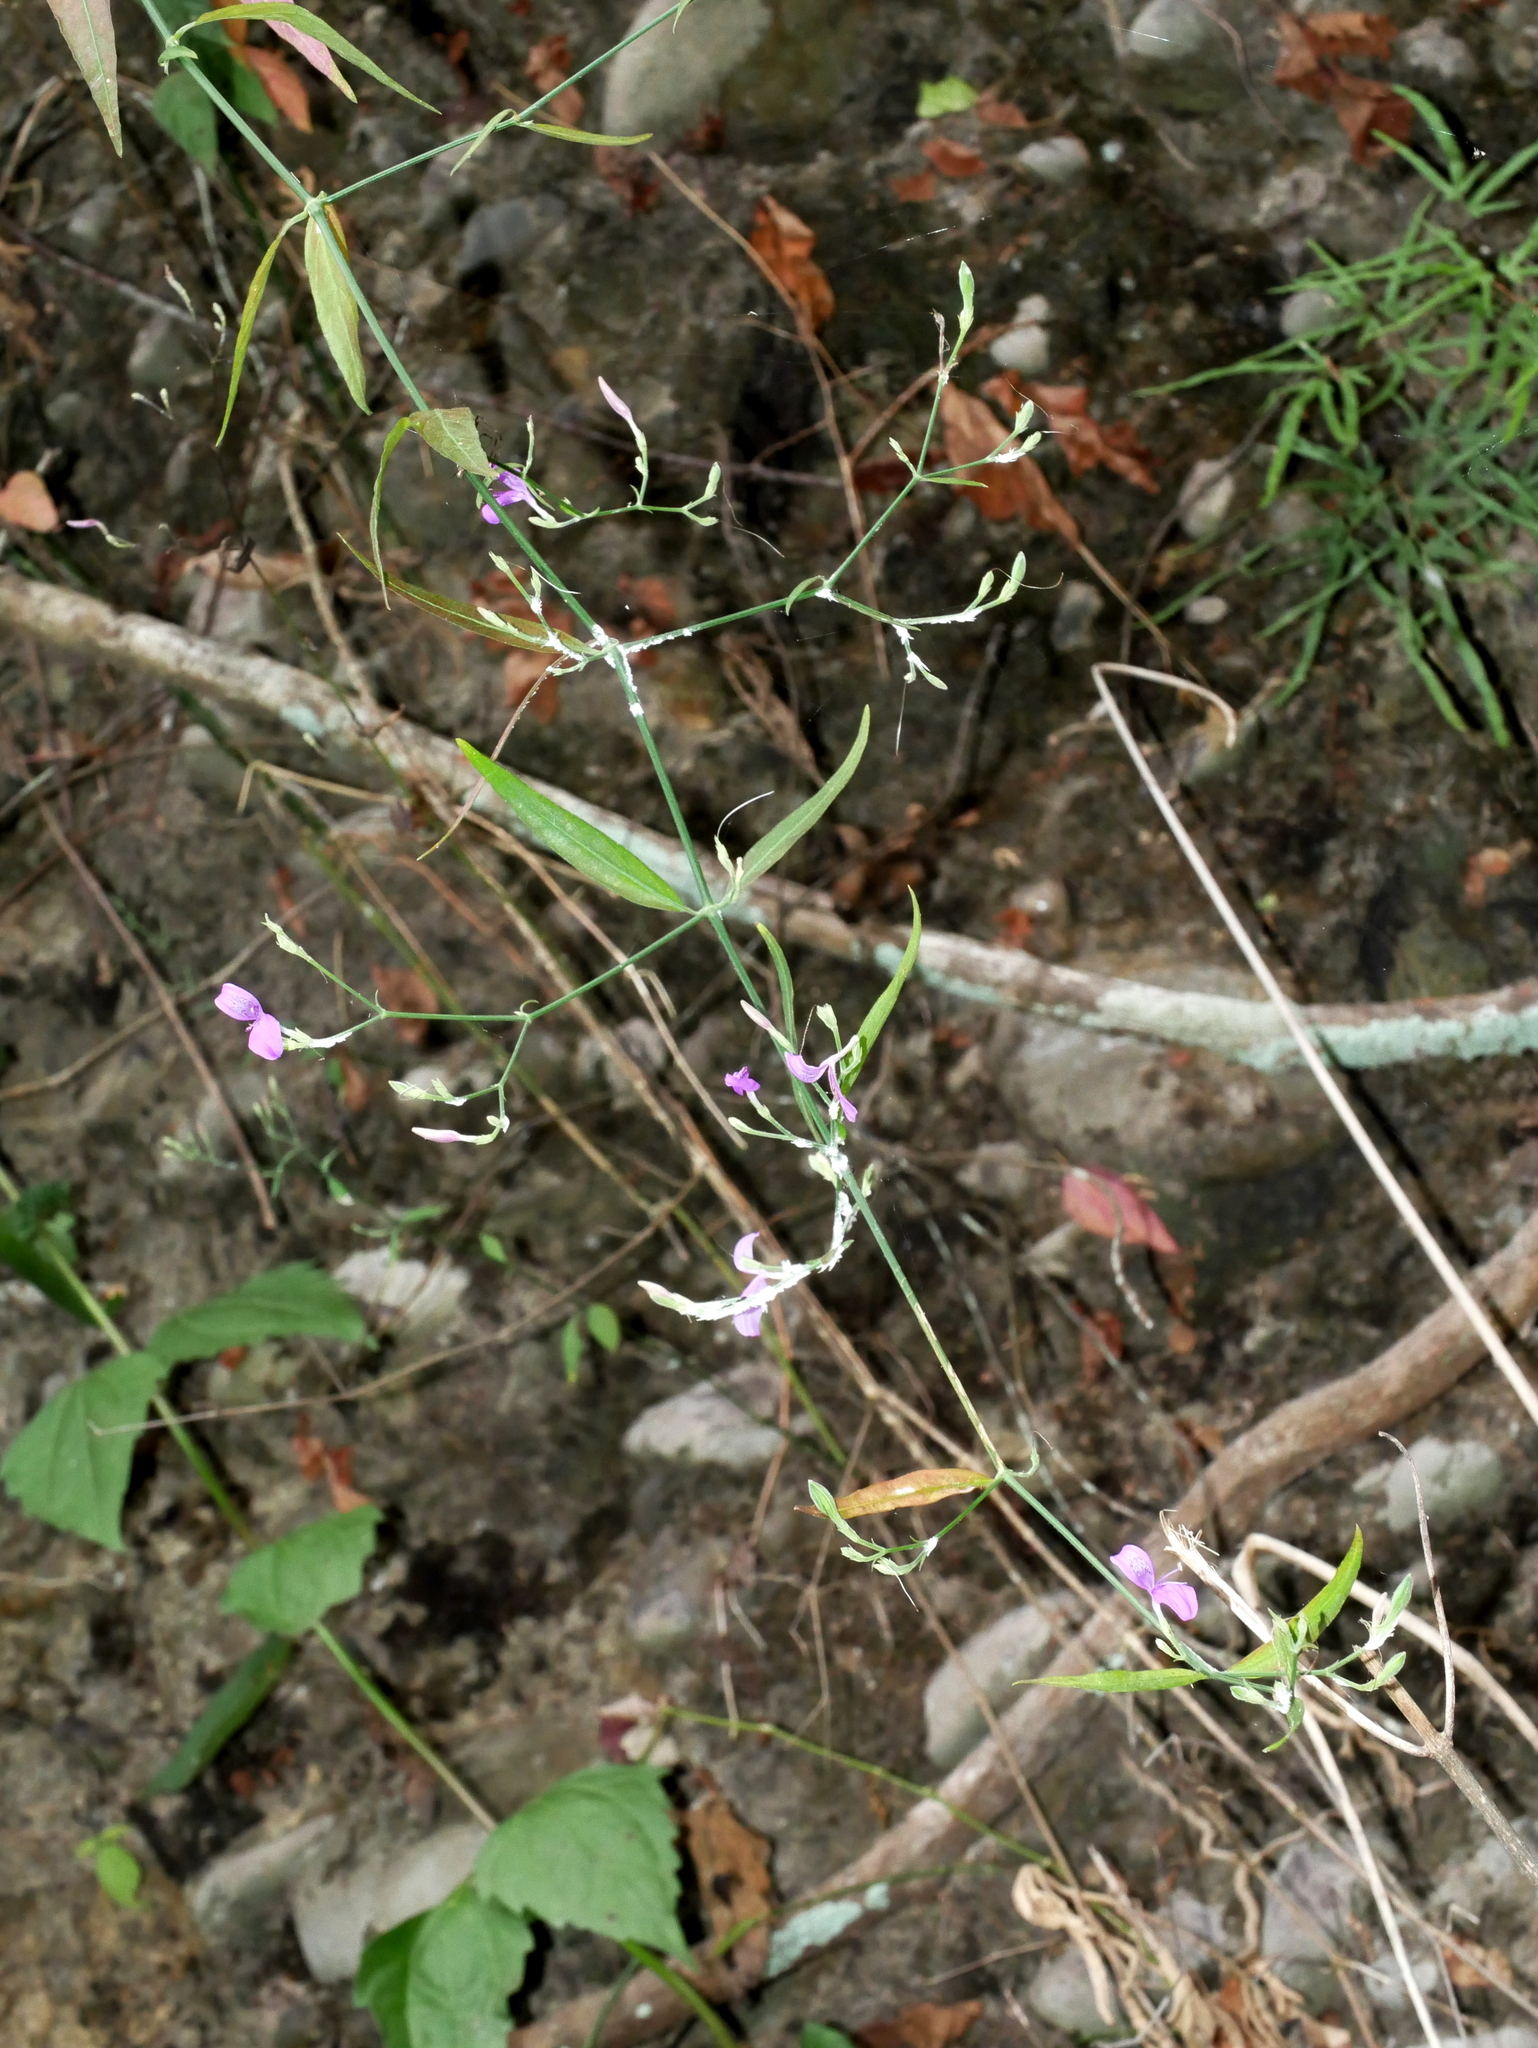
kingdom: Plantae
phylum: Tracheophyta
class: Magnoliopsida
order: Lamiales
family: Acanthaceae
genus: Hypoestes
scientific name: Hypoestes cumingiana
